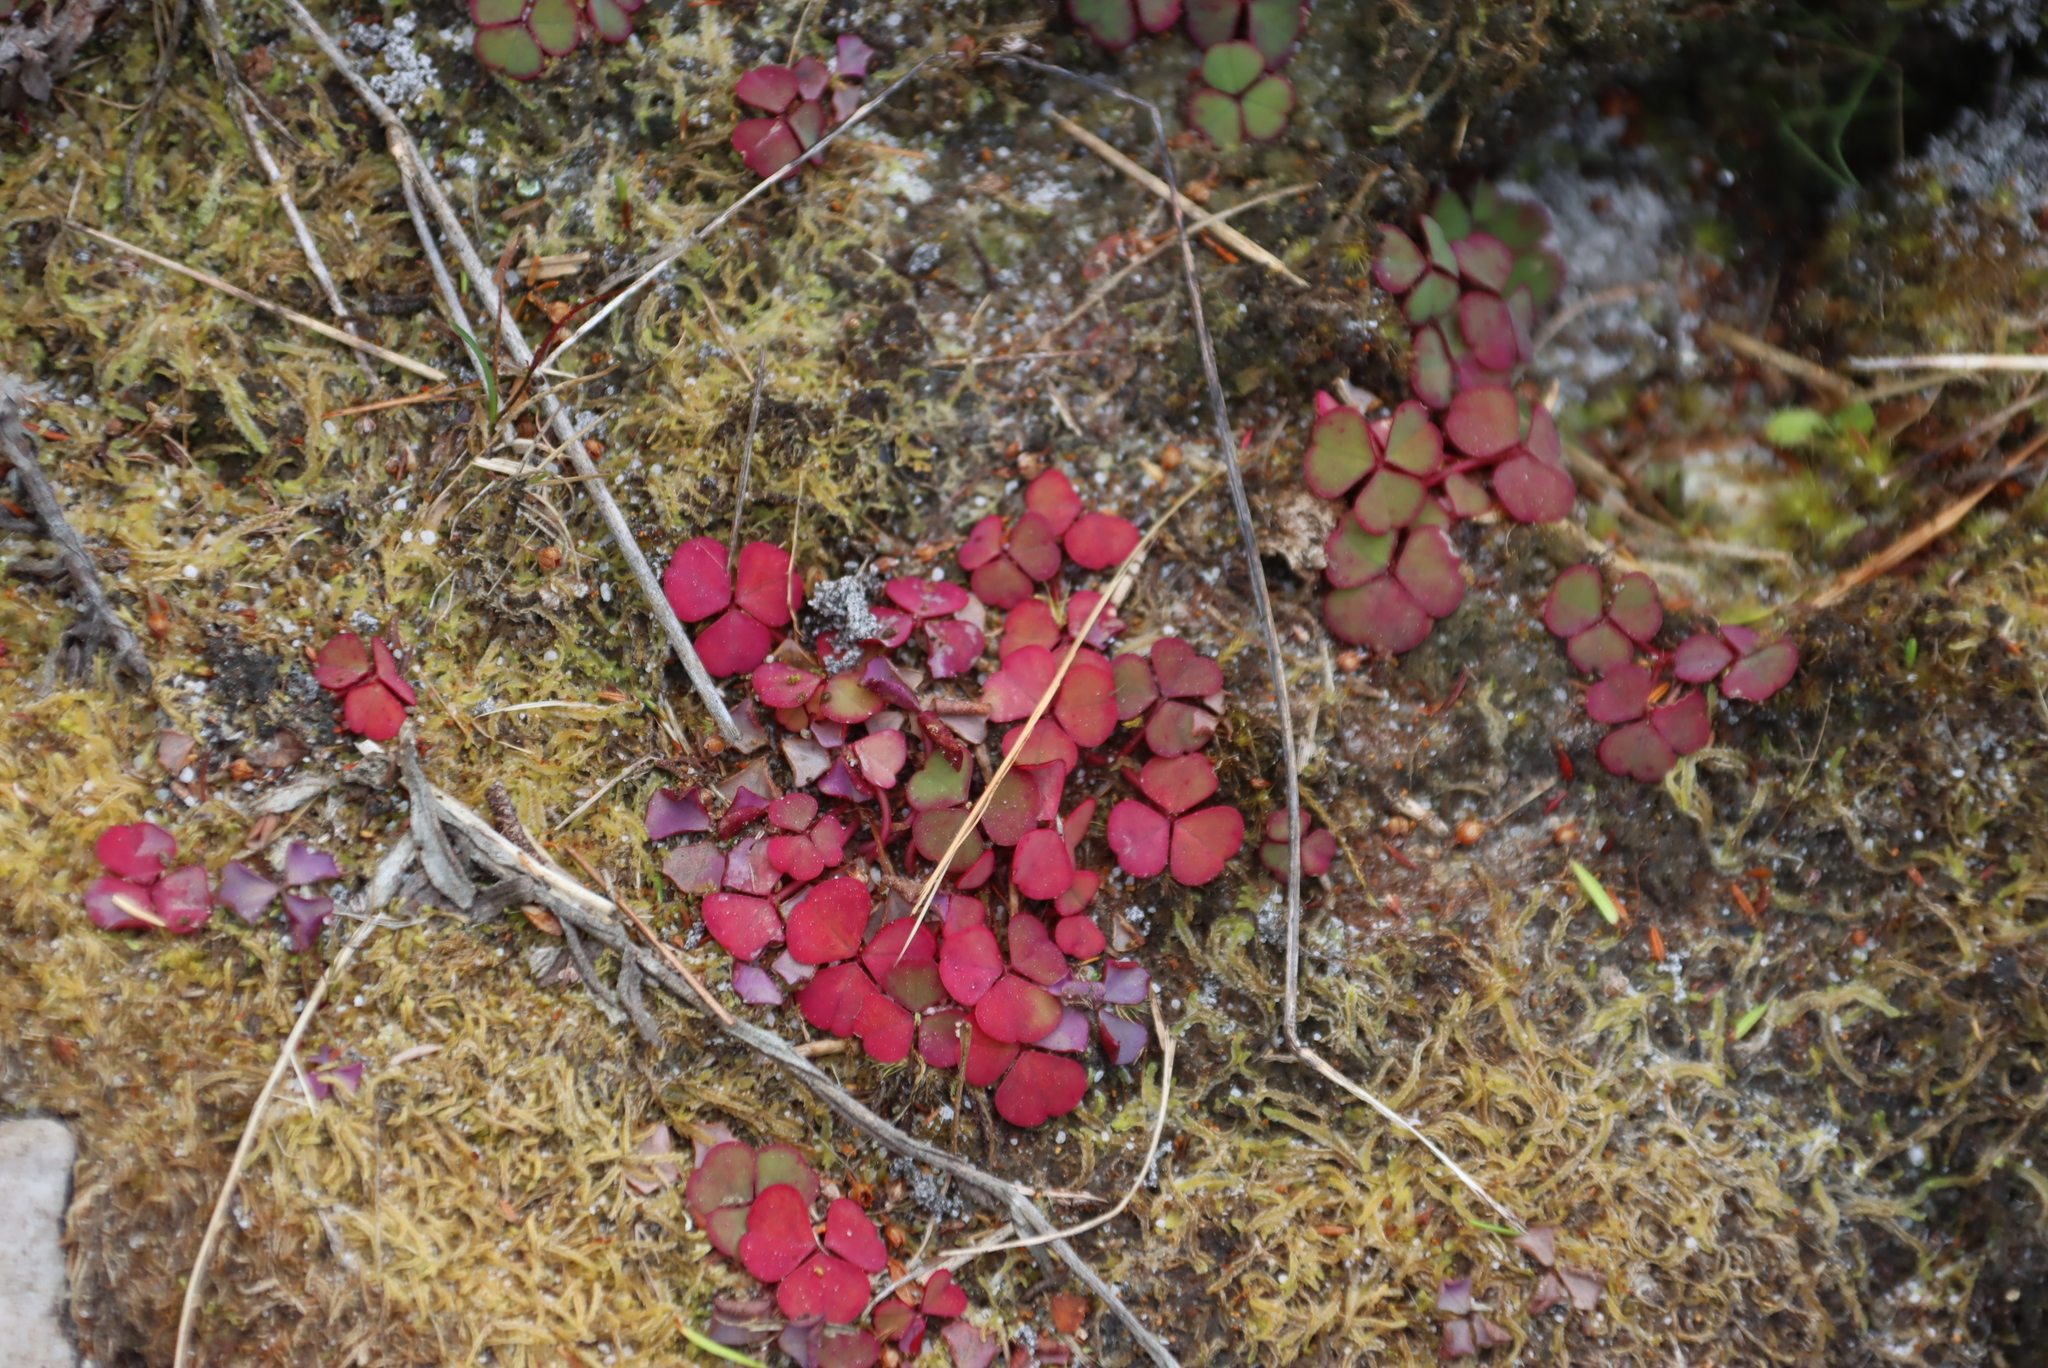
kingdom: Plantae
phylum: Tracheophyta
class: Magnoliopsida
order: Oxalidales
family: Oxalidaceae
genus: Oxalis
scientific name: Oxalis commutata
